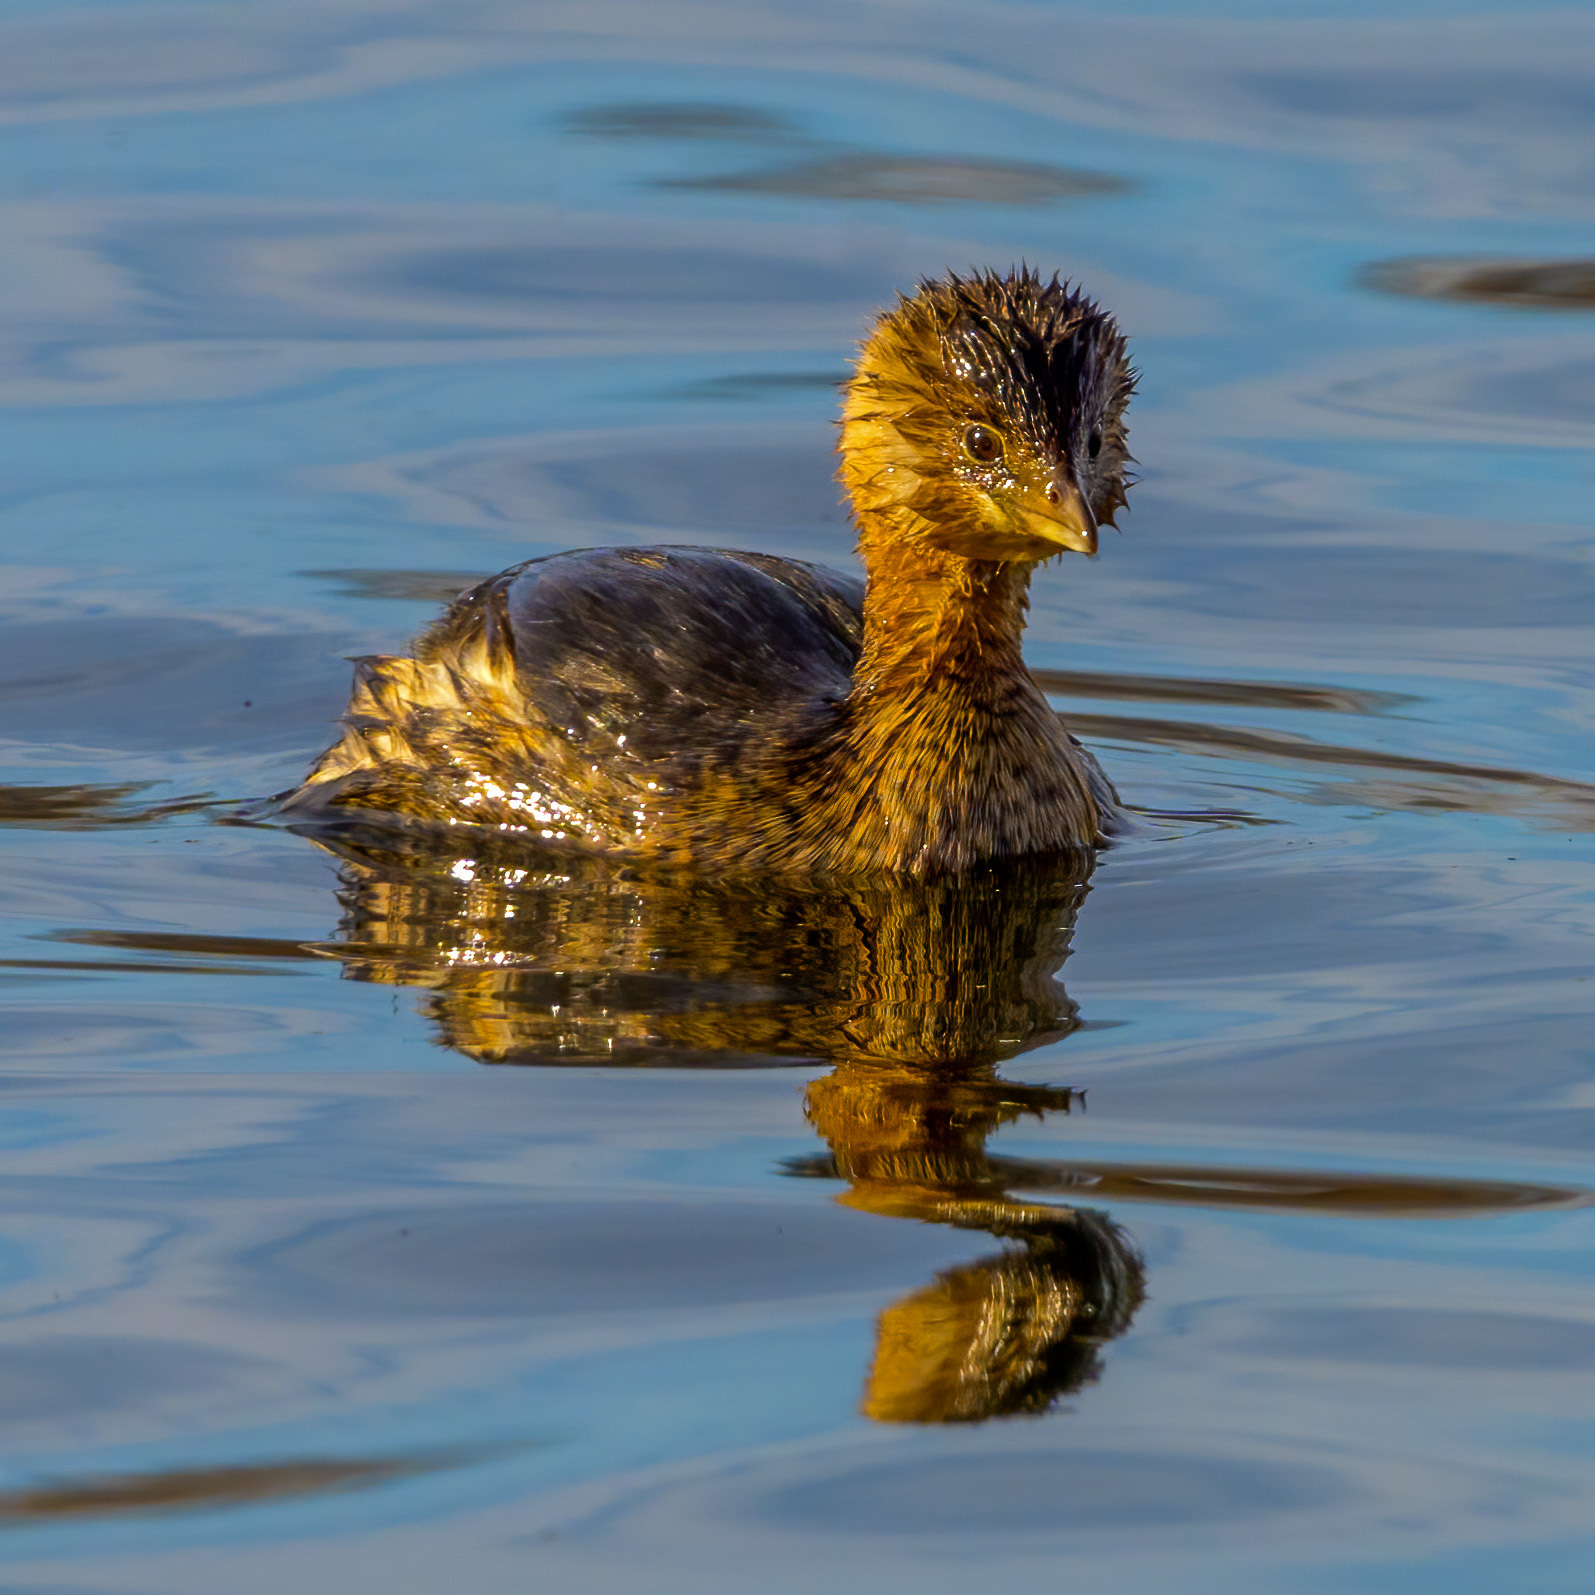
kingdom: Animalia
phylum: Chordata
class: Aves
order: Podicipediformes
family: Podicipedidae
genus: Podilymbus
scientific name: Podilymbus podiceps
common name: Pied-billed grebe
